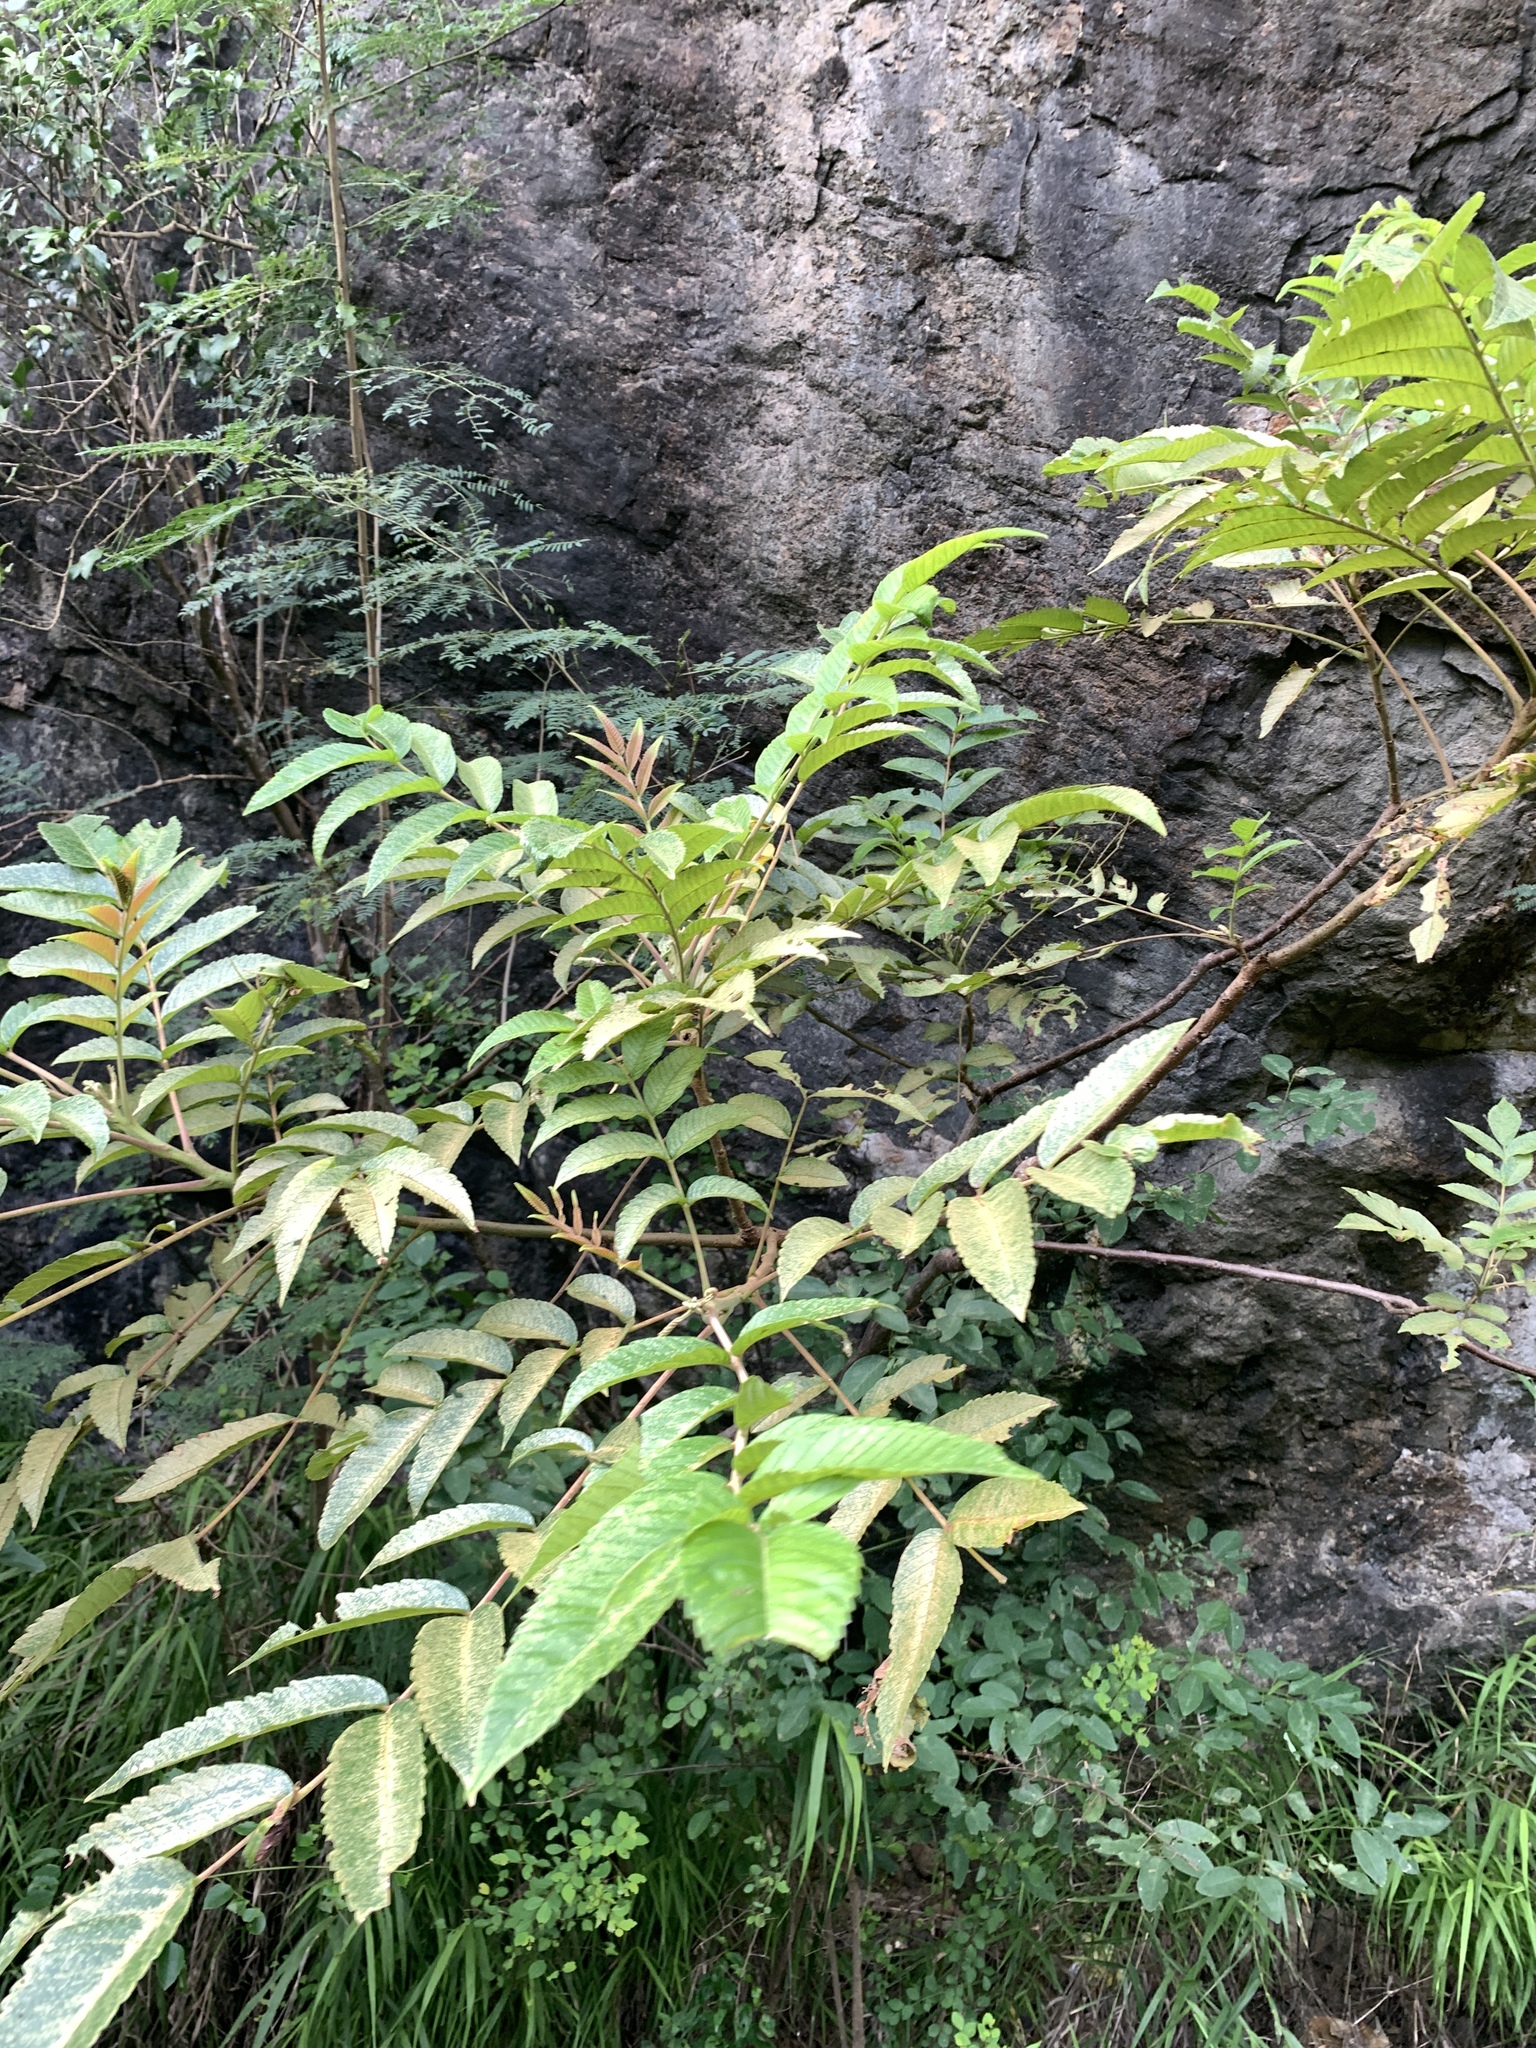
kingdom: Plantae
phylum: Tracheophyta
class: Magnoliopsida
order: Sapindales
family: Anacardiaceae
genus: Rhus
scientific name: Rhus chinensis
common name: Chinese gall
